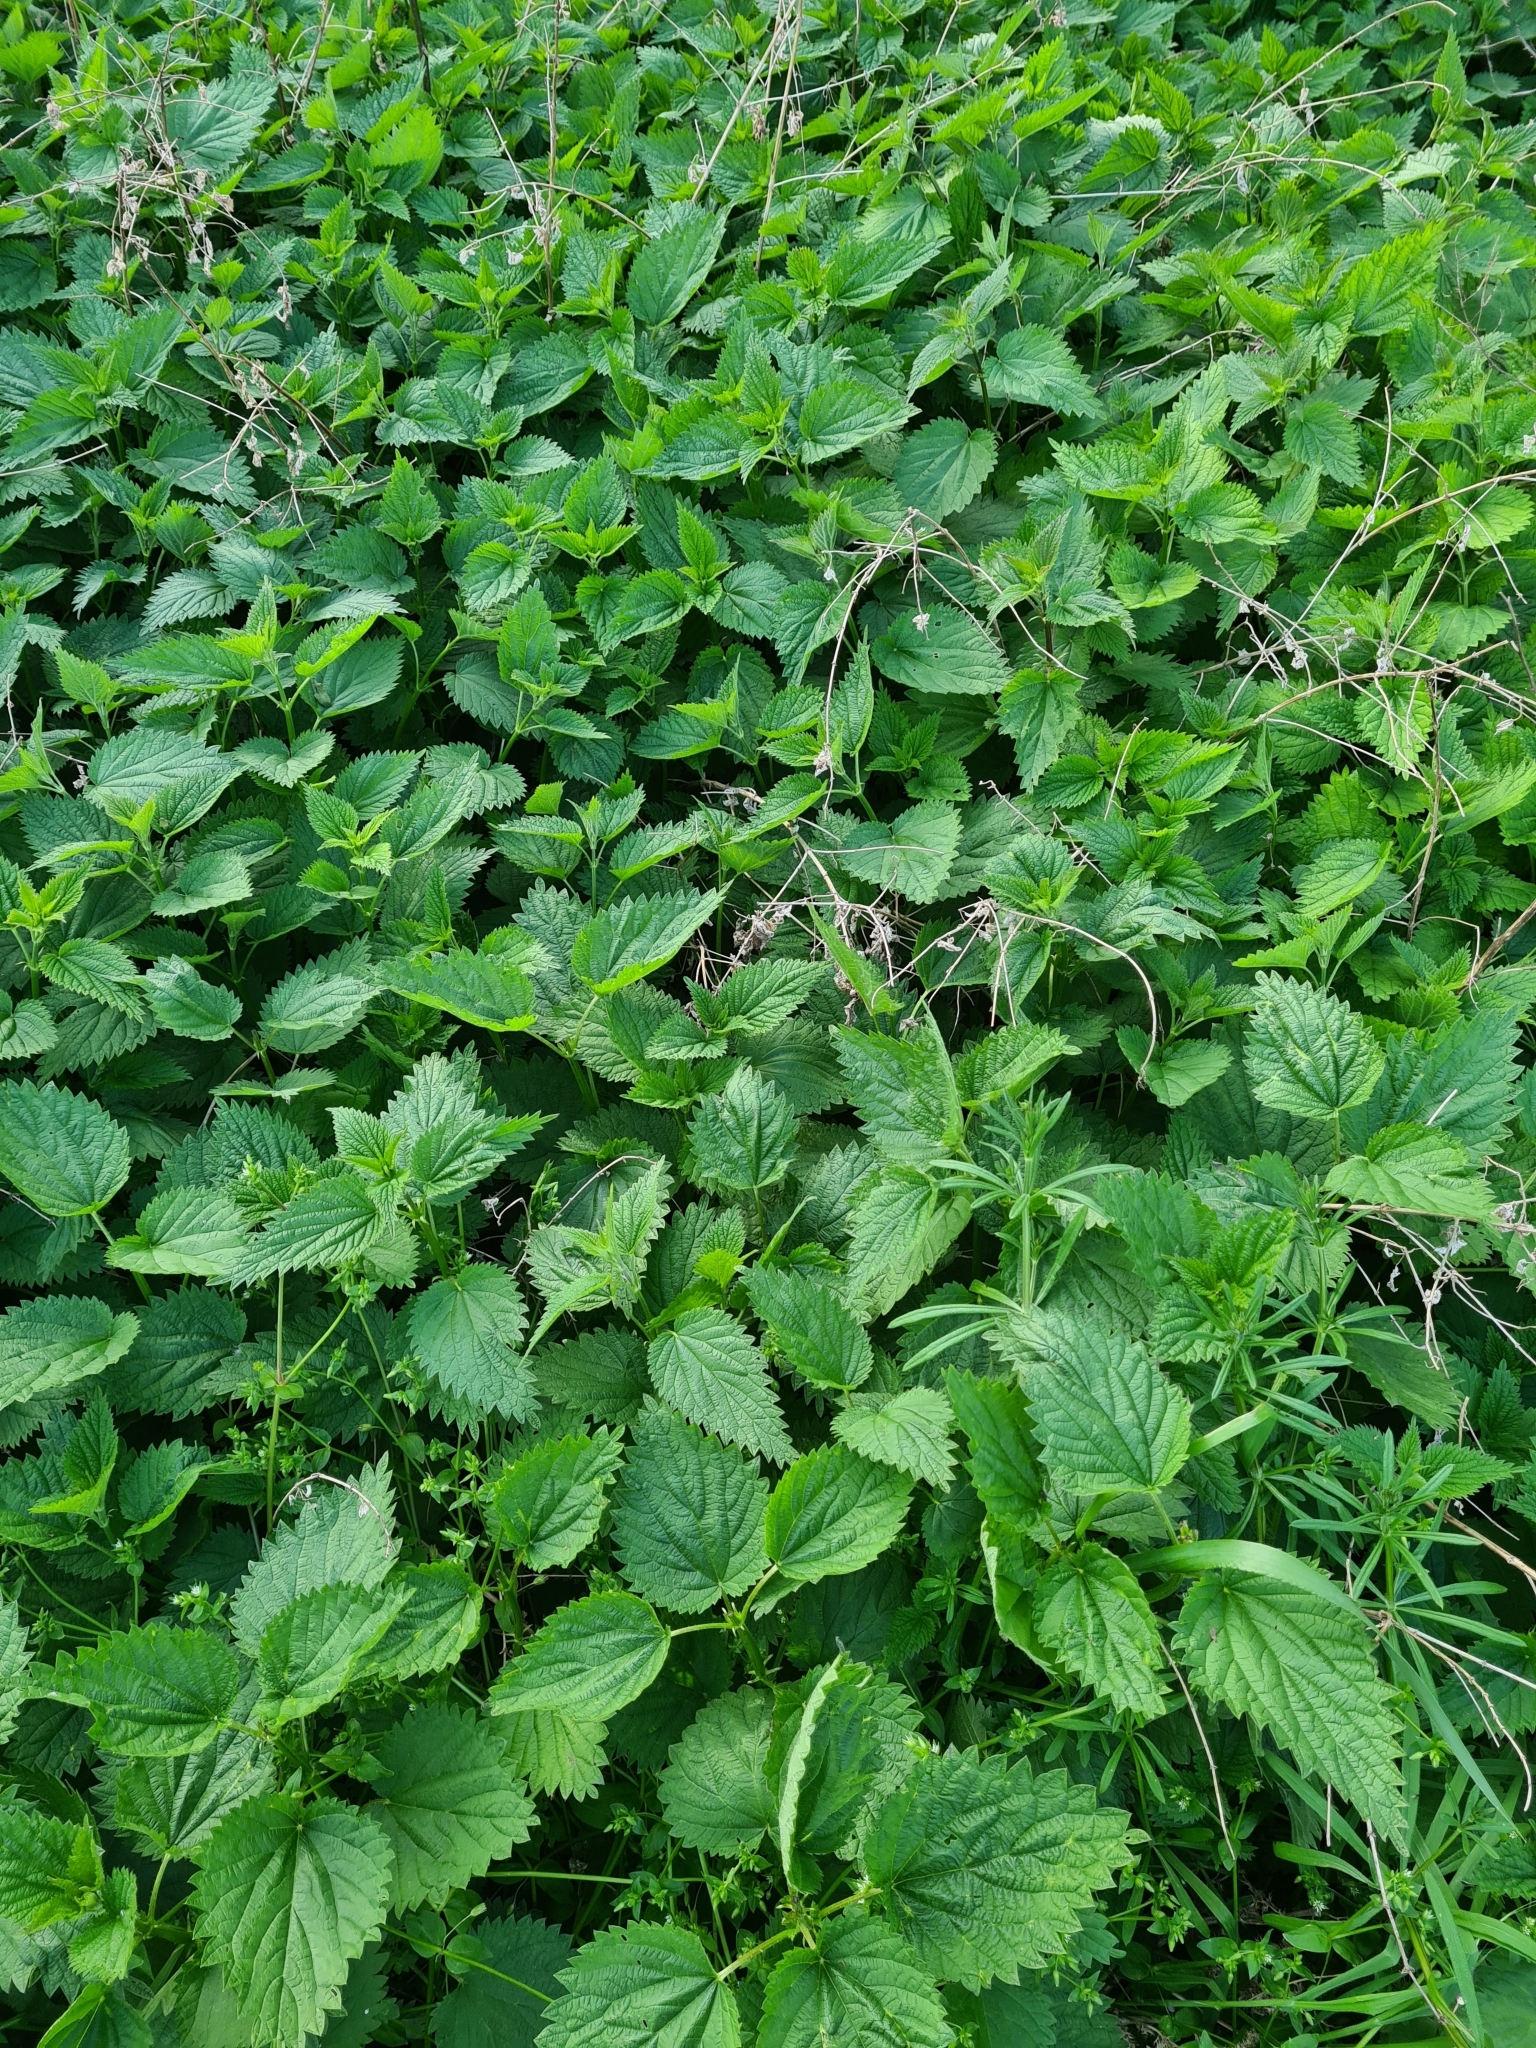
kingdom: Plantae
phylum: Tracheophyta
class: Magnoliopsida
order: Rosales
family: Urticaceae
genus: Urtica
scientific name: Urtica dioica
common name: Common nettle
